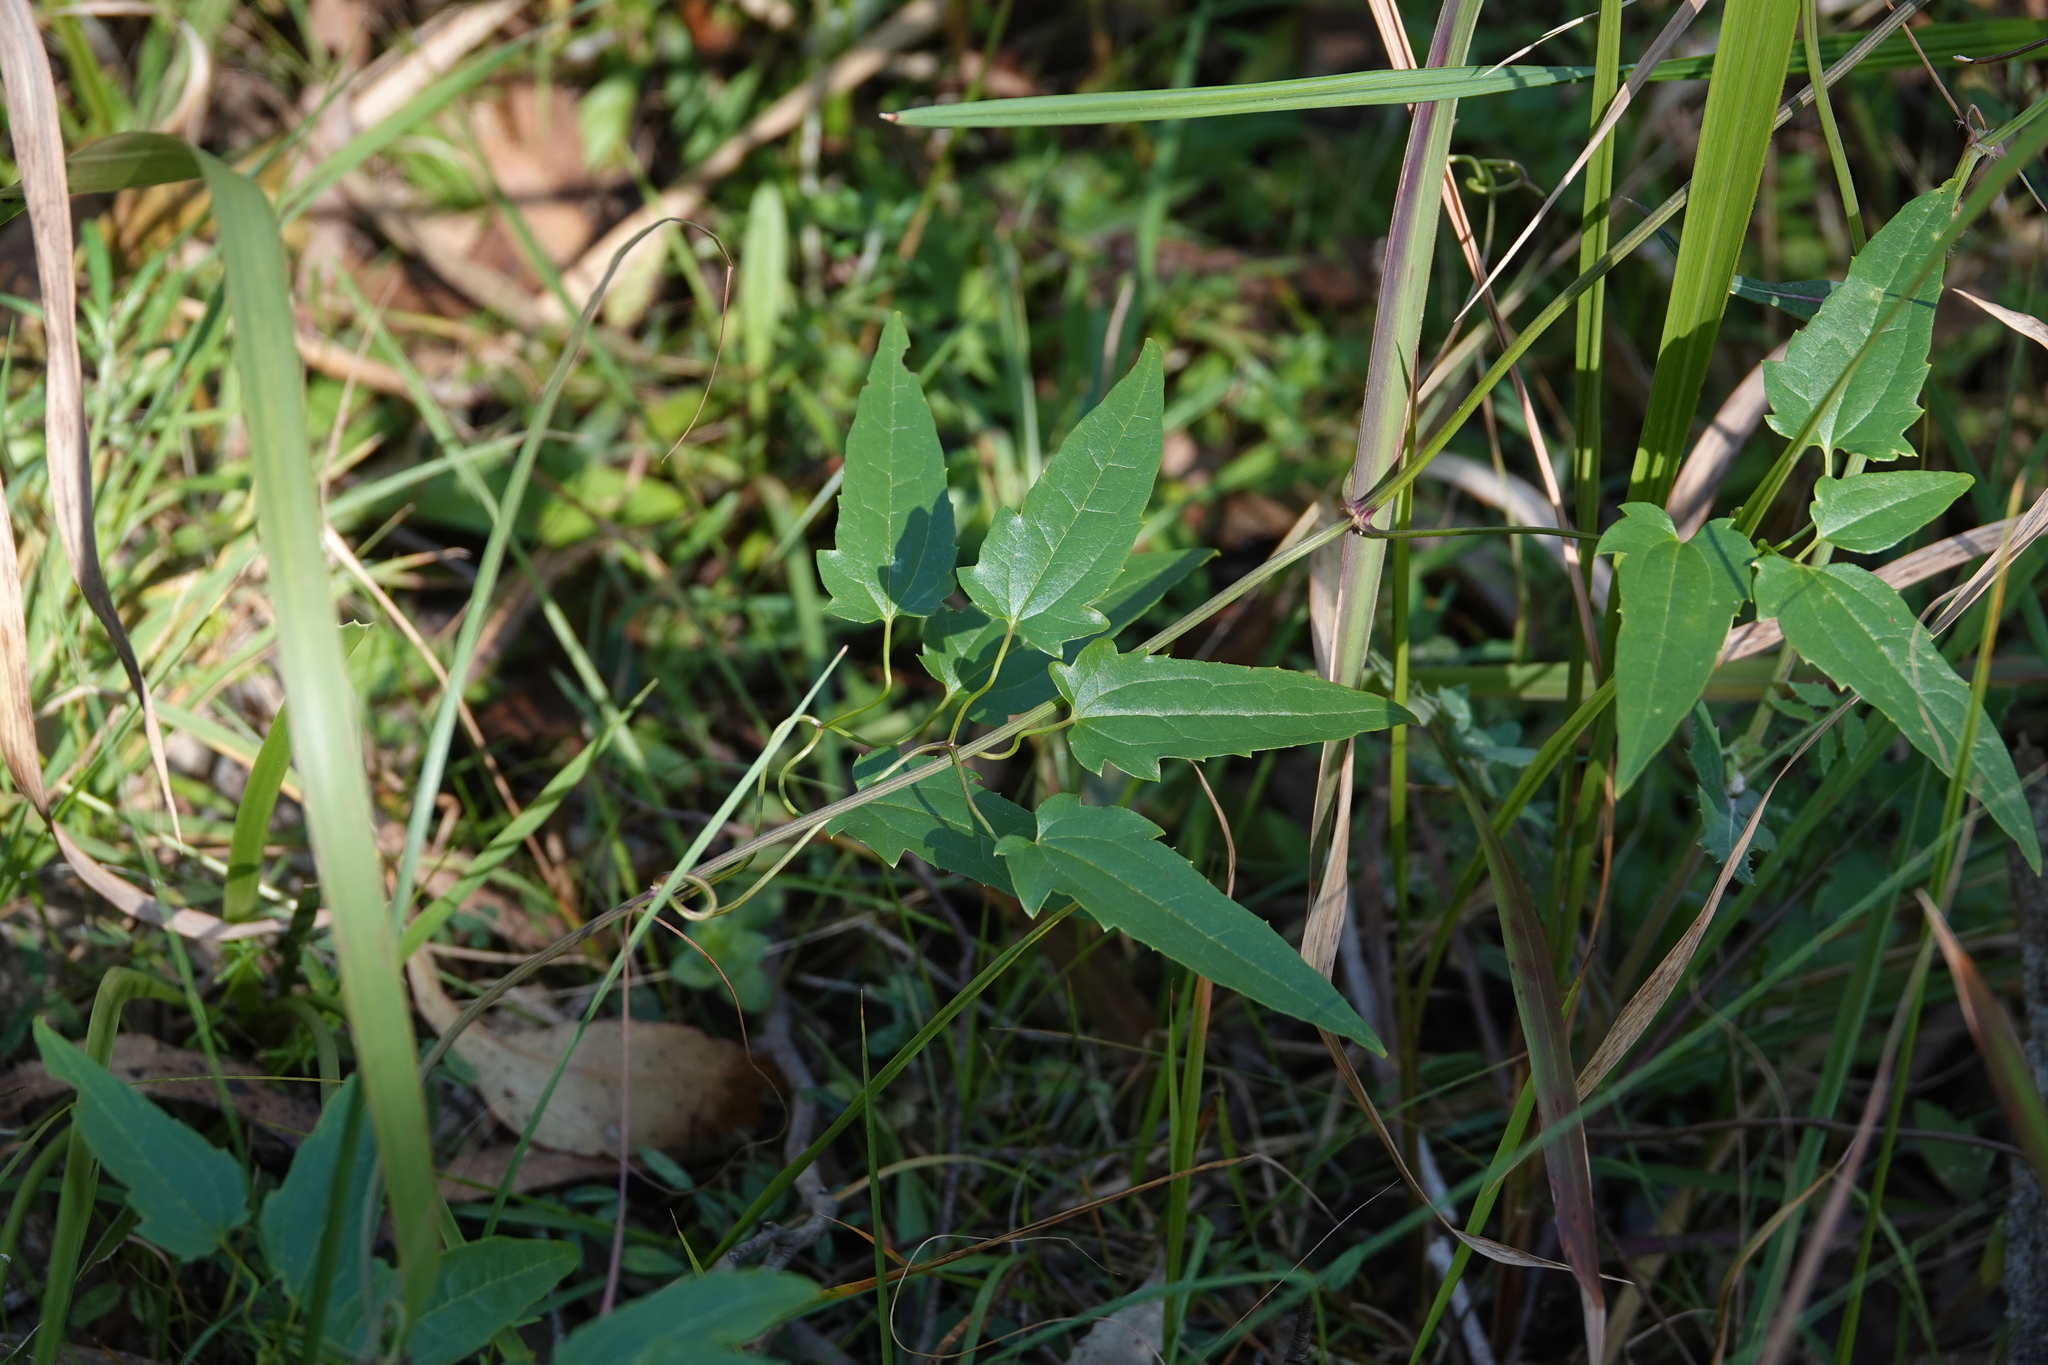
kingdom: Plantae
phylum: Tracheophyta
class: Magnoliopsida
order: Ranunculales
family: Ranunculaceae
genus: Clematis
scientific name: Clematis glycinoides
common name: Forest clematis
